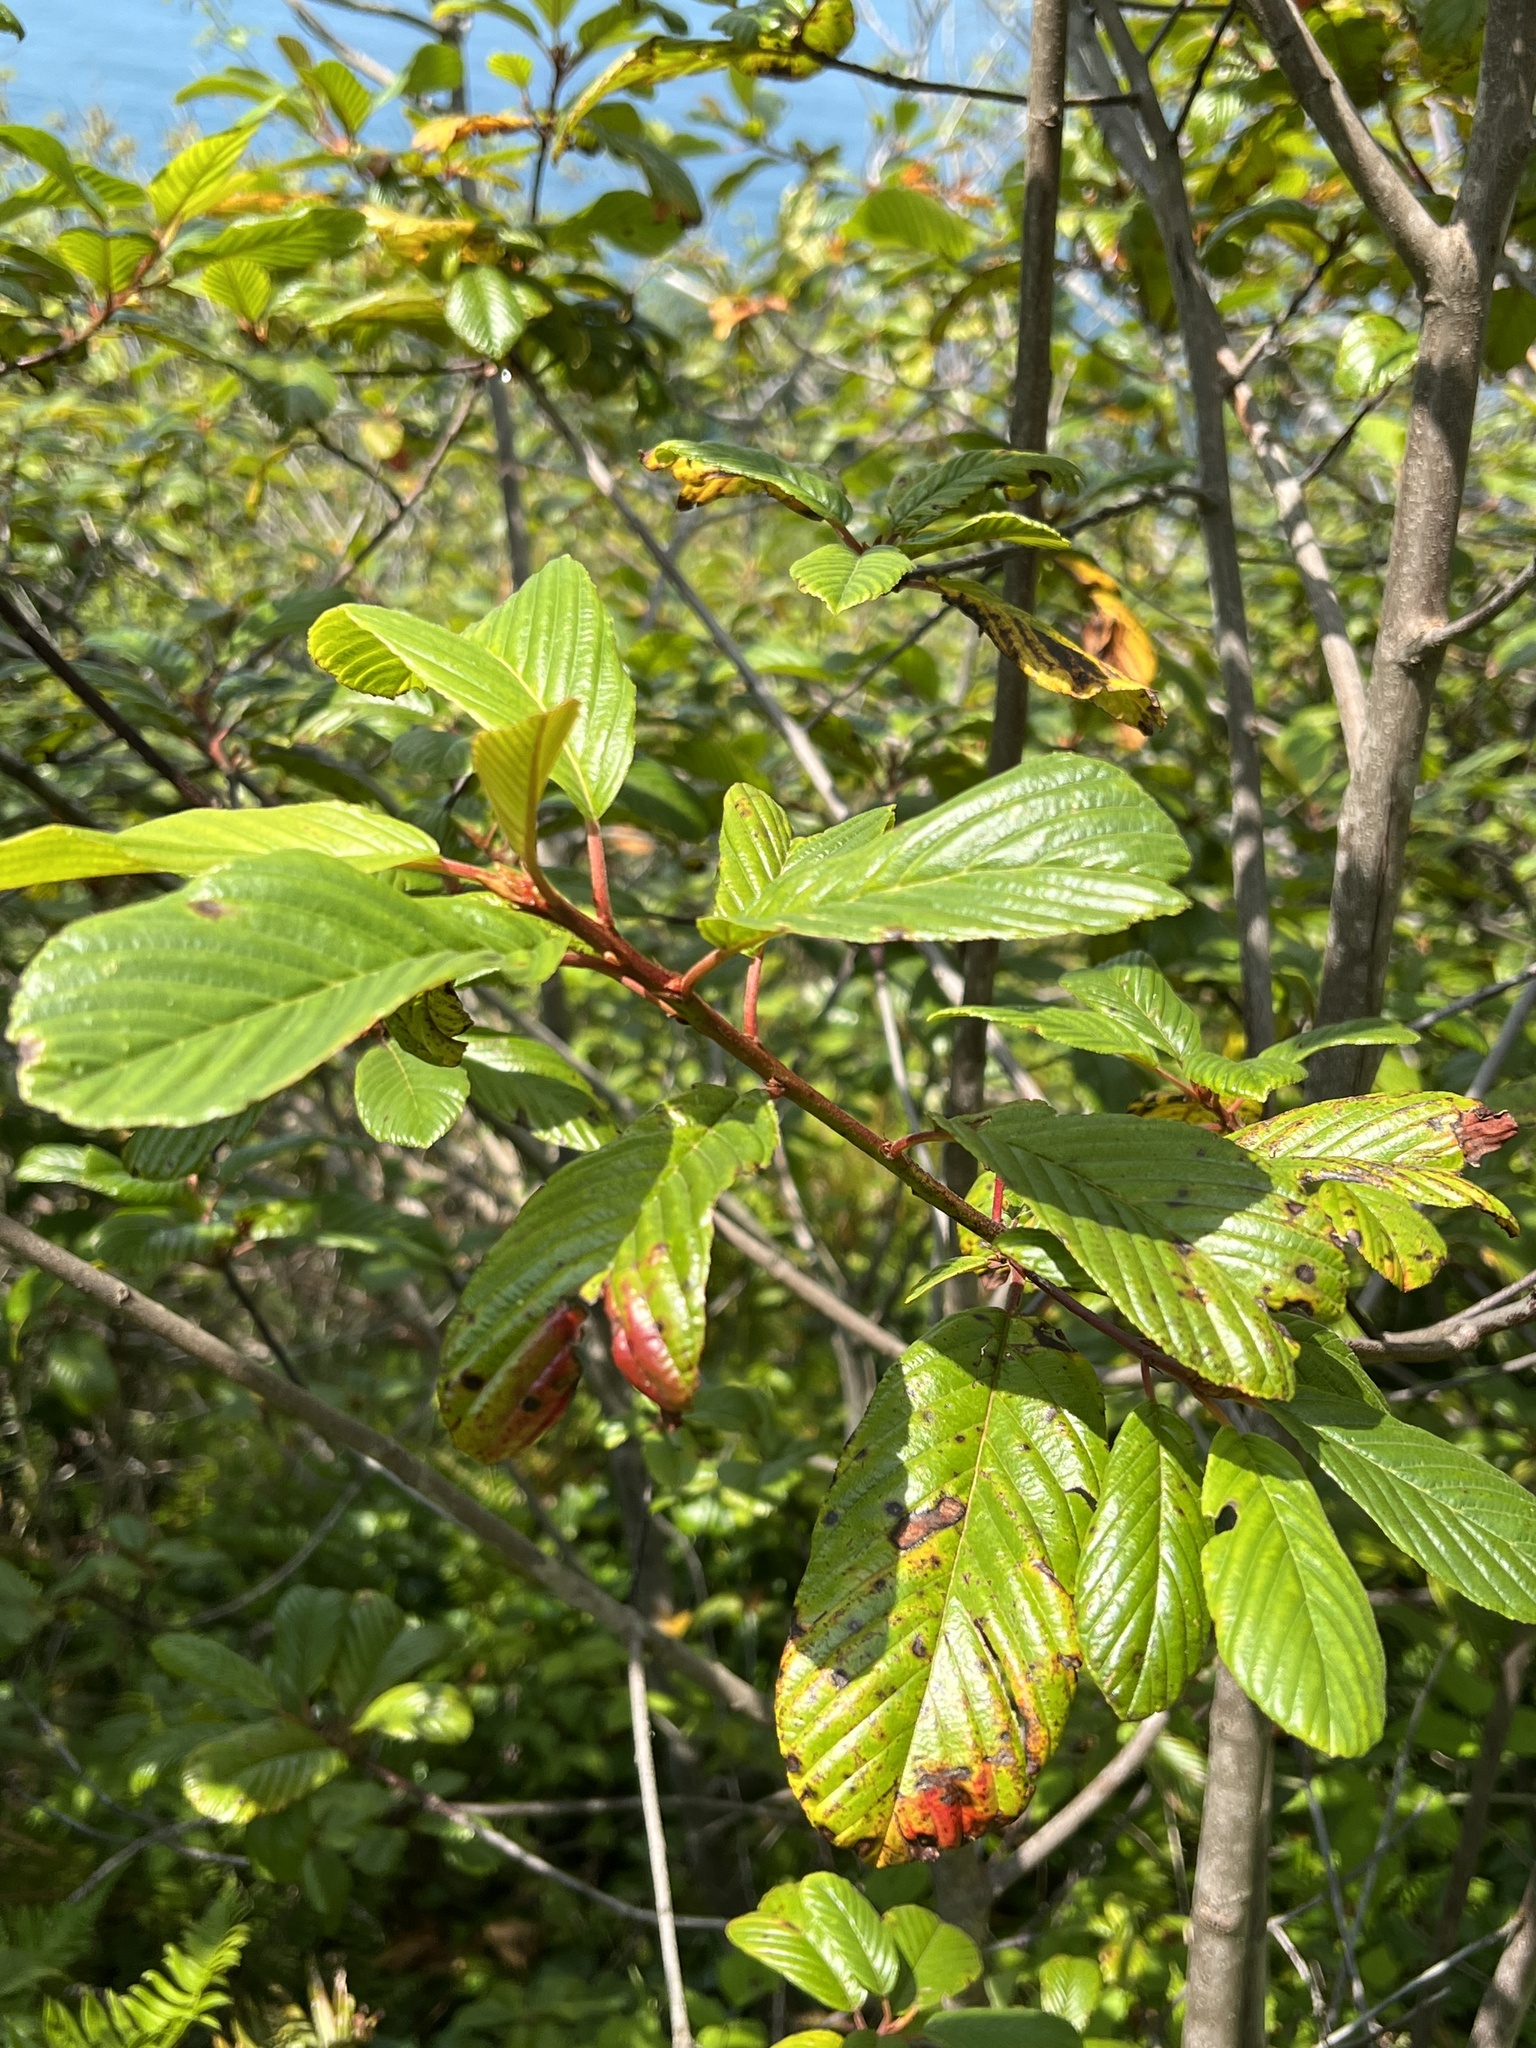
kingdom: Plantae
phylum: Tracheophyta
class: Magnoliopsida
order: Rosales
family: Rhamnaceae
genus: Frangula
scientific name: Frangula purshiana
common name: Cascara buckthorn
